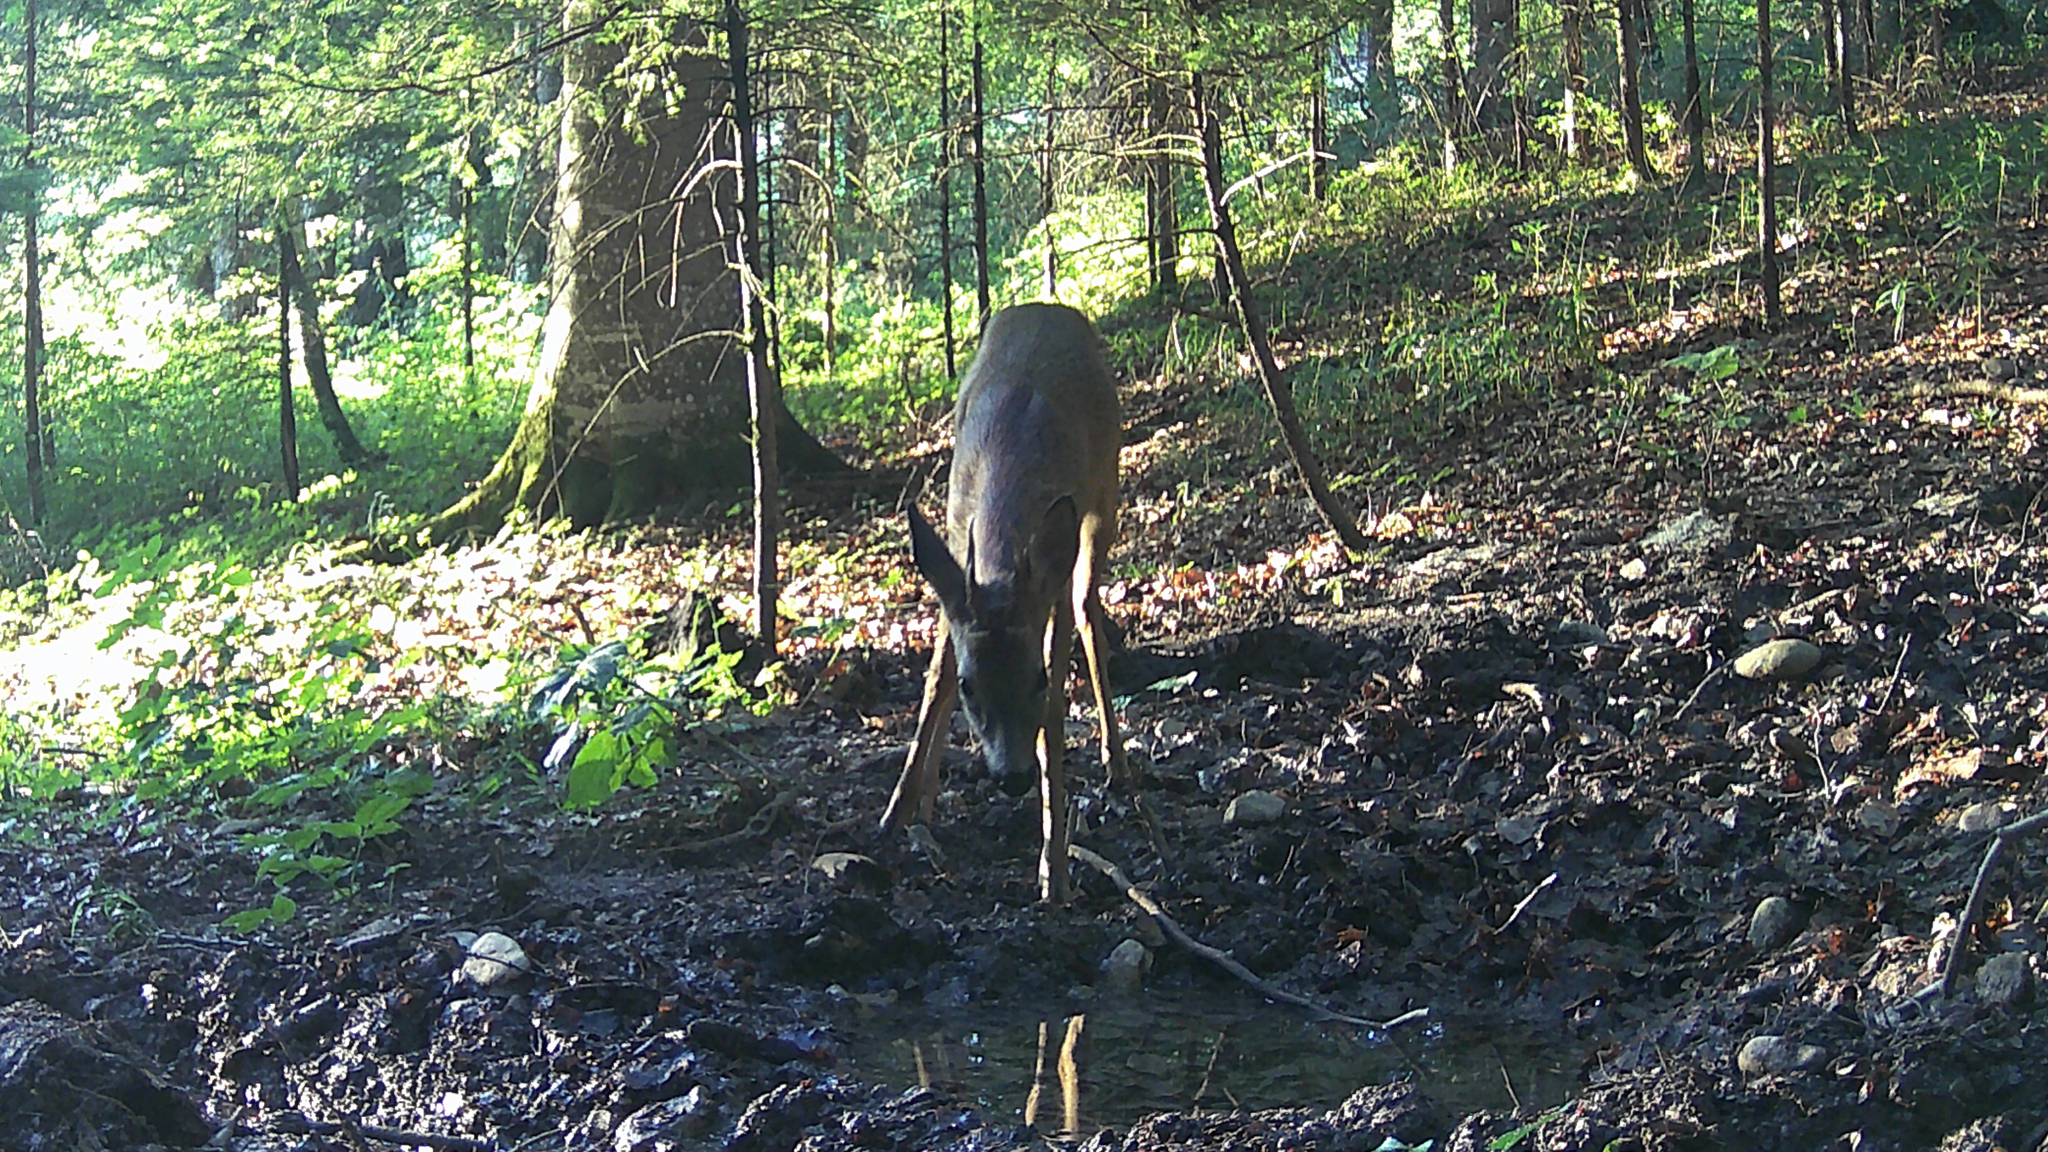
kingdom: Animalia
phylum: Chordata
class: Mammalia
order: Artiodactyla
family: Cervidae
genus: Capreolus
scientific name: Capreolus capreolus
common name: Western roe deer
